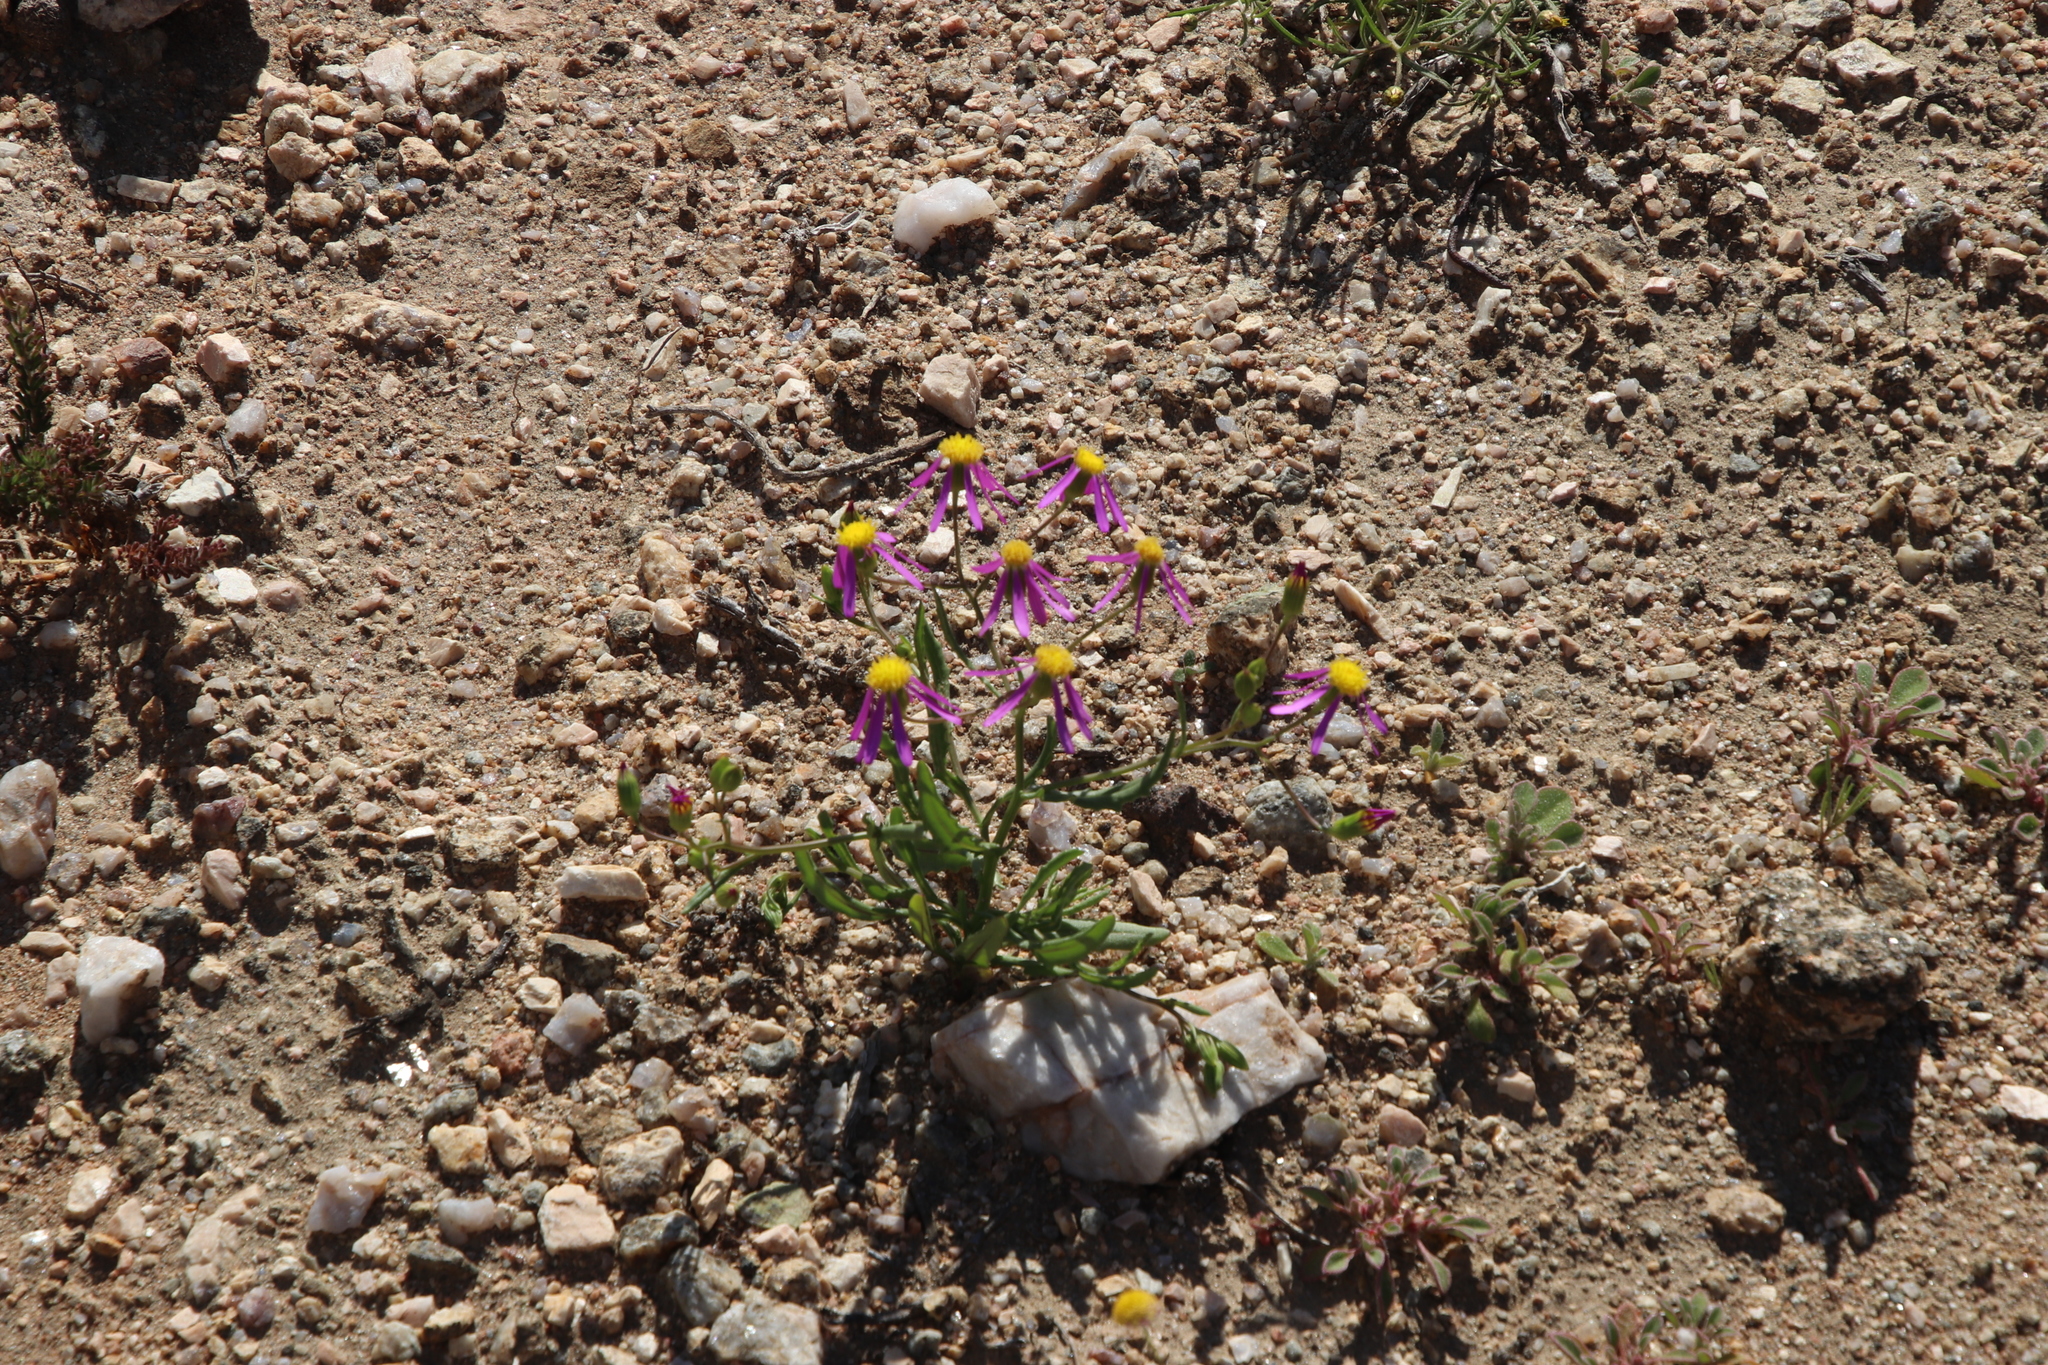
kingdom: Plantae
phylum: Tracheophyta
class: Magnoliopsida
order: Asterales
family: Asteraceae
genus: Senecio
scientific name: Senecio arenarius
